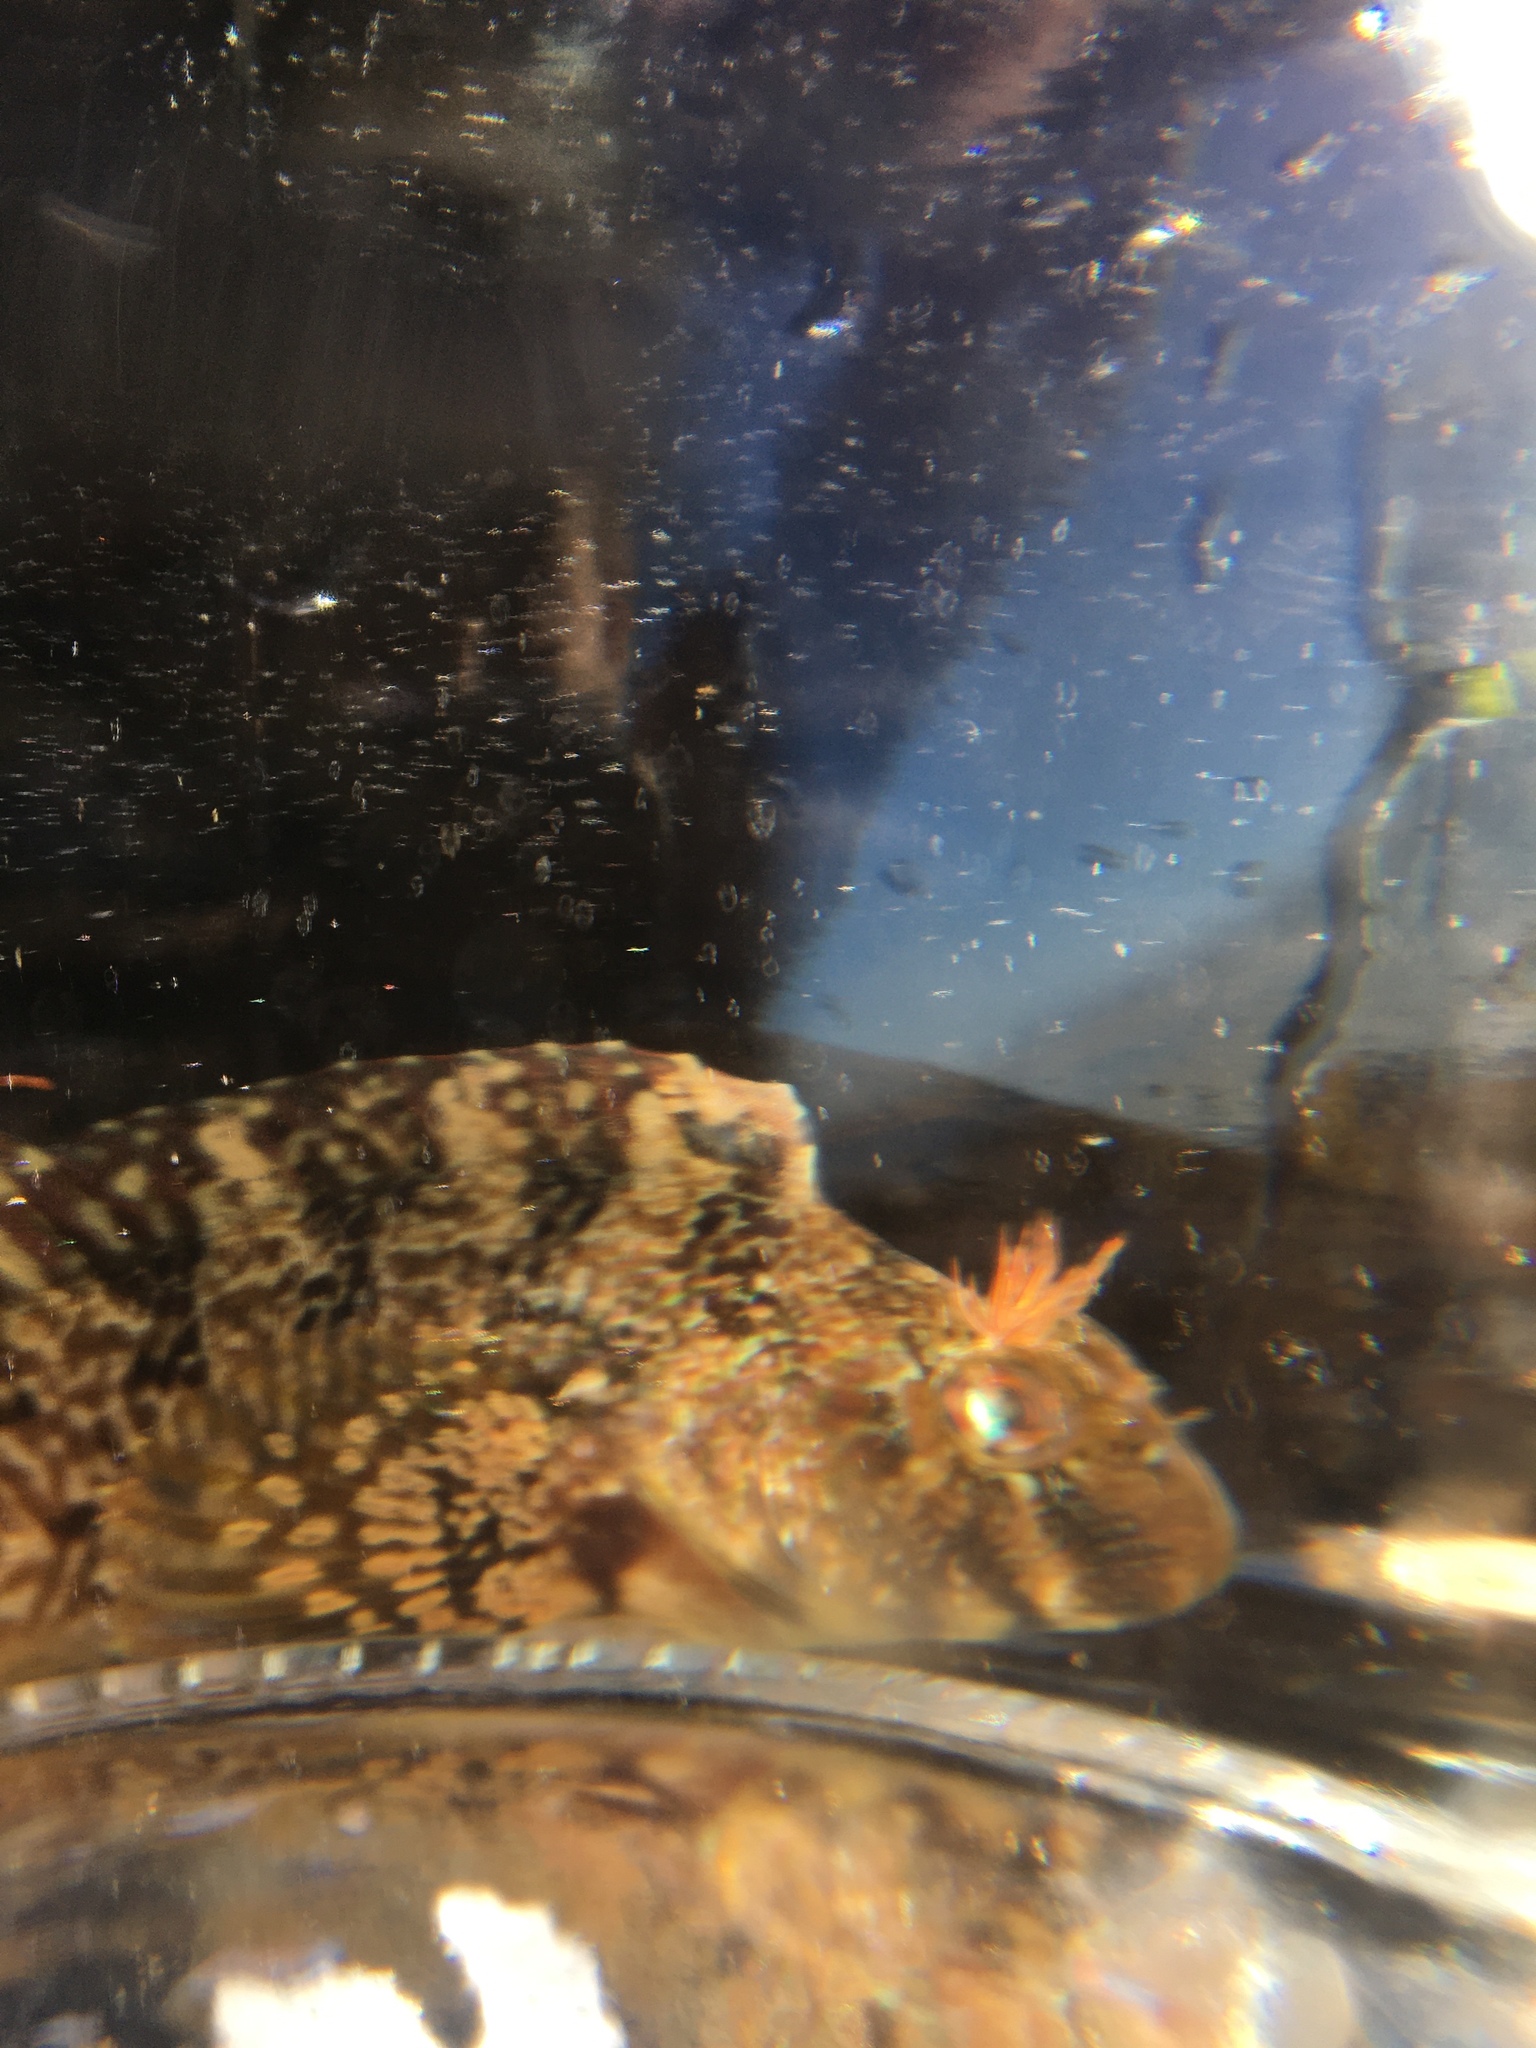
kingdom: Animalia
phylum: Chordata
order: Perciformes
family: Blenniidae
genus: Hypsoblennius
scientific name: Hypsoblennius gilberti
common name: Notchbrow blenny
